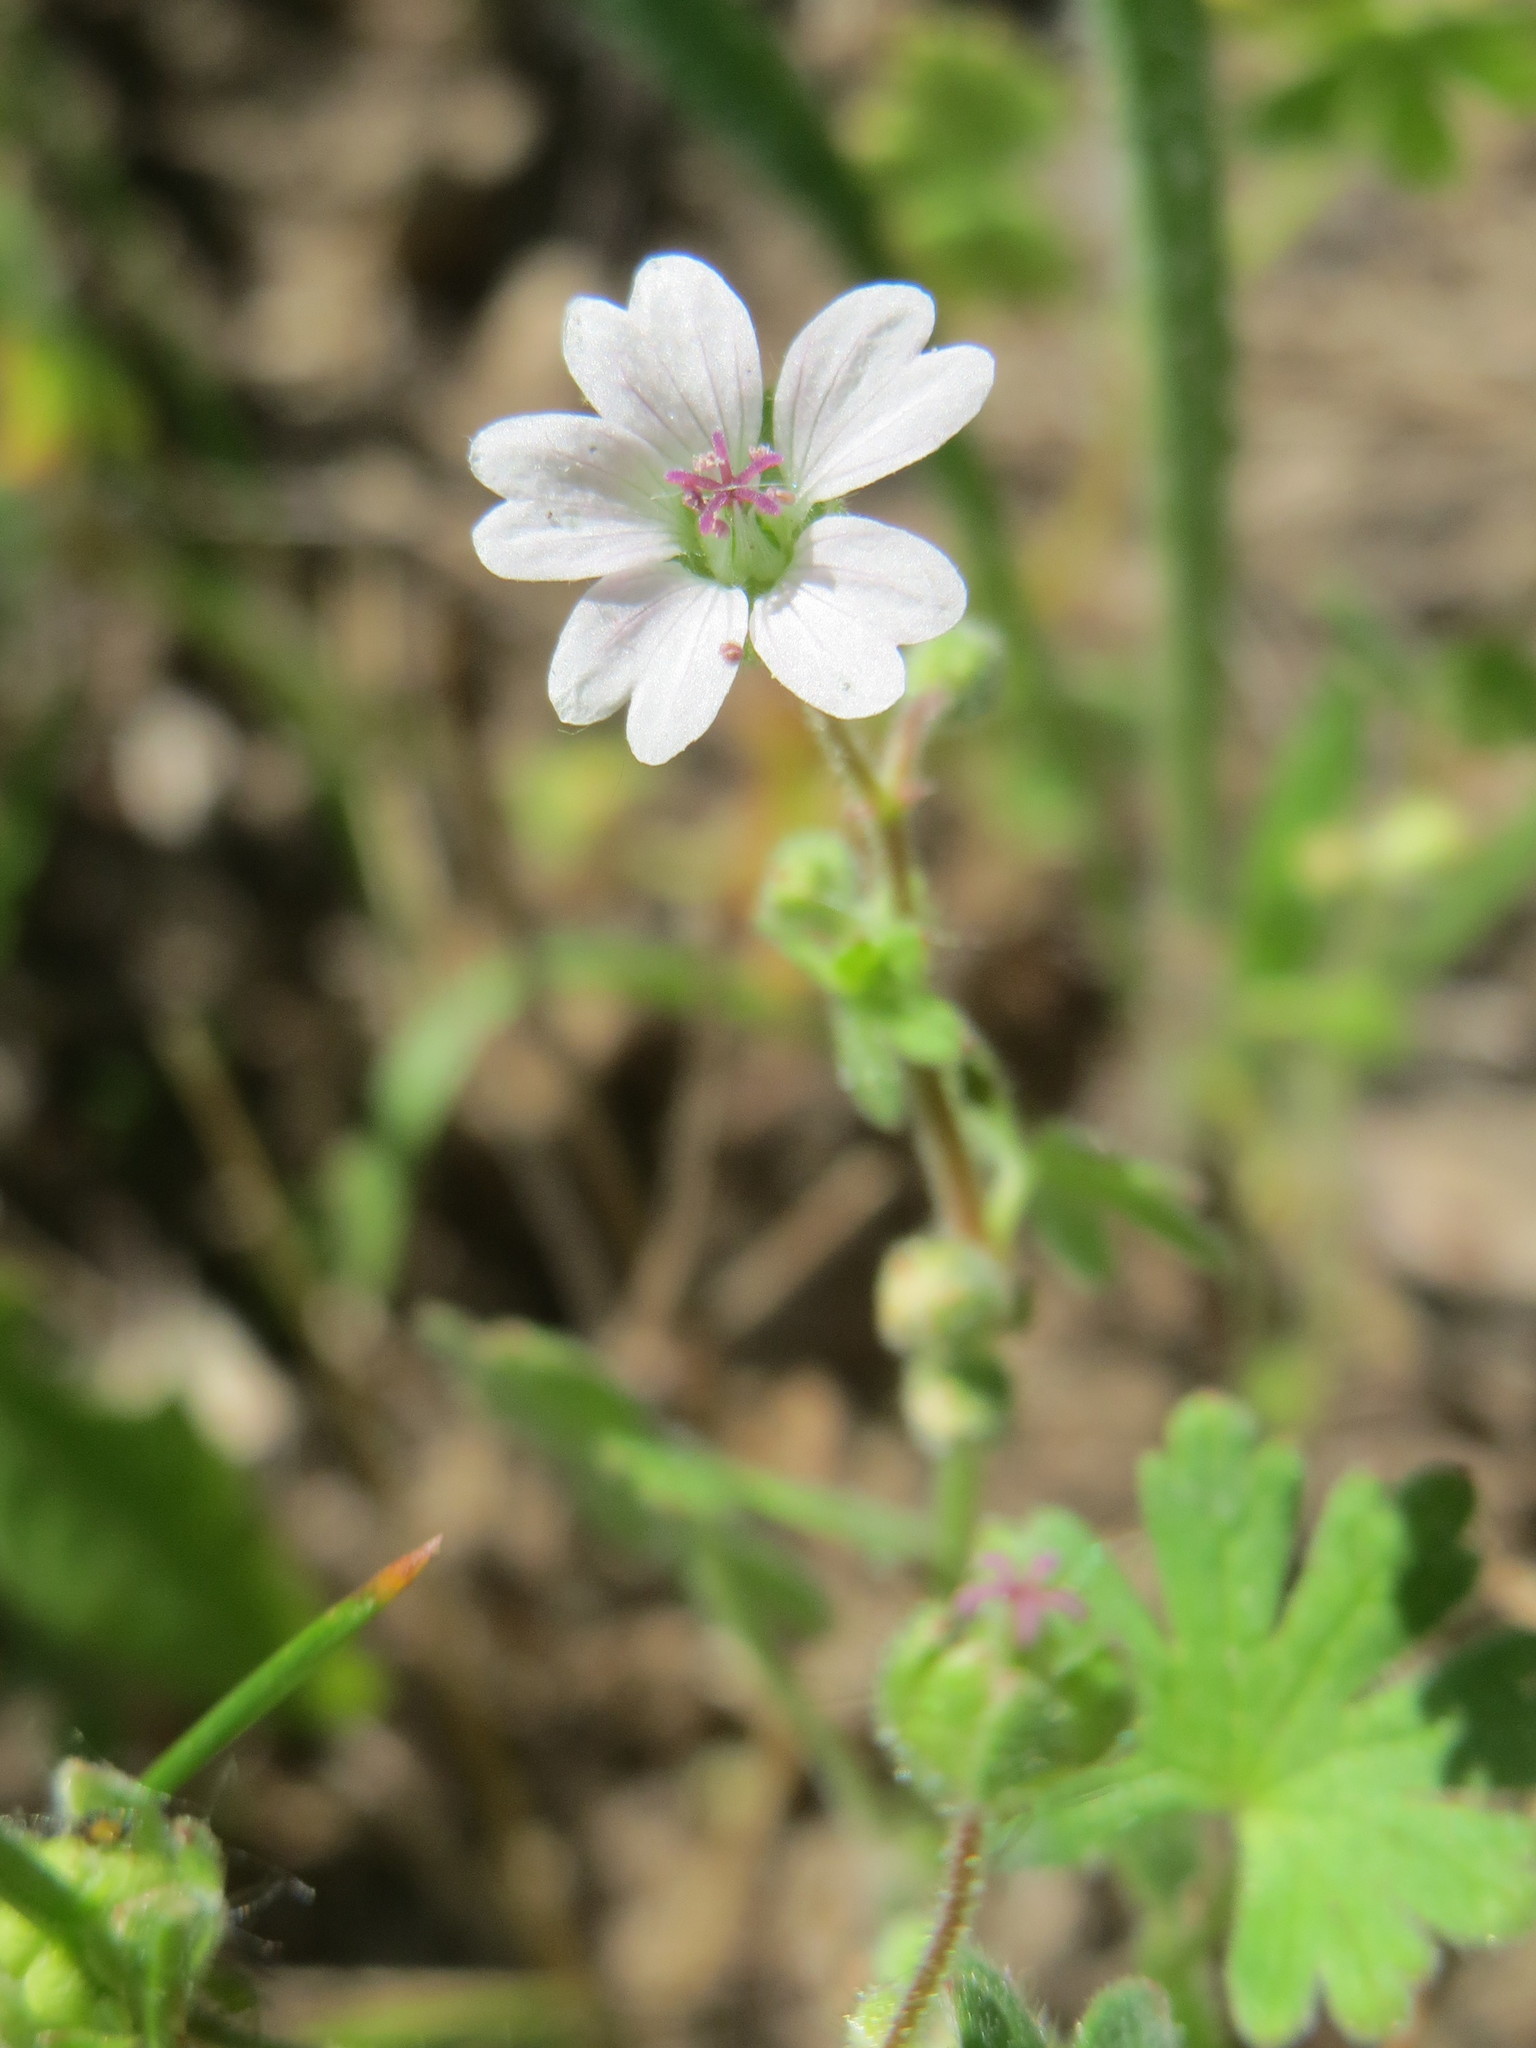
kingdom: Plantae
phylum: Tracheophyta
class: Magnoliopsida
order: Geraniales
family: Geraniaceae
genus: Geranium
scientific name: Geranium pusillum
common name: Small geranium
